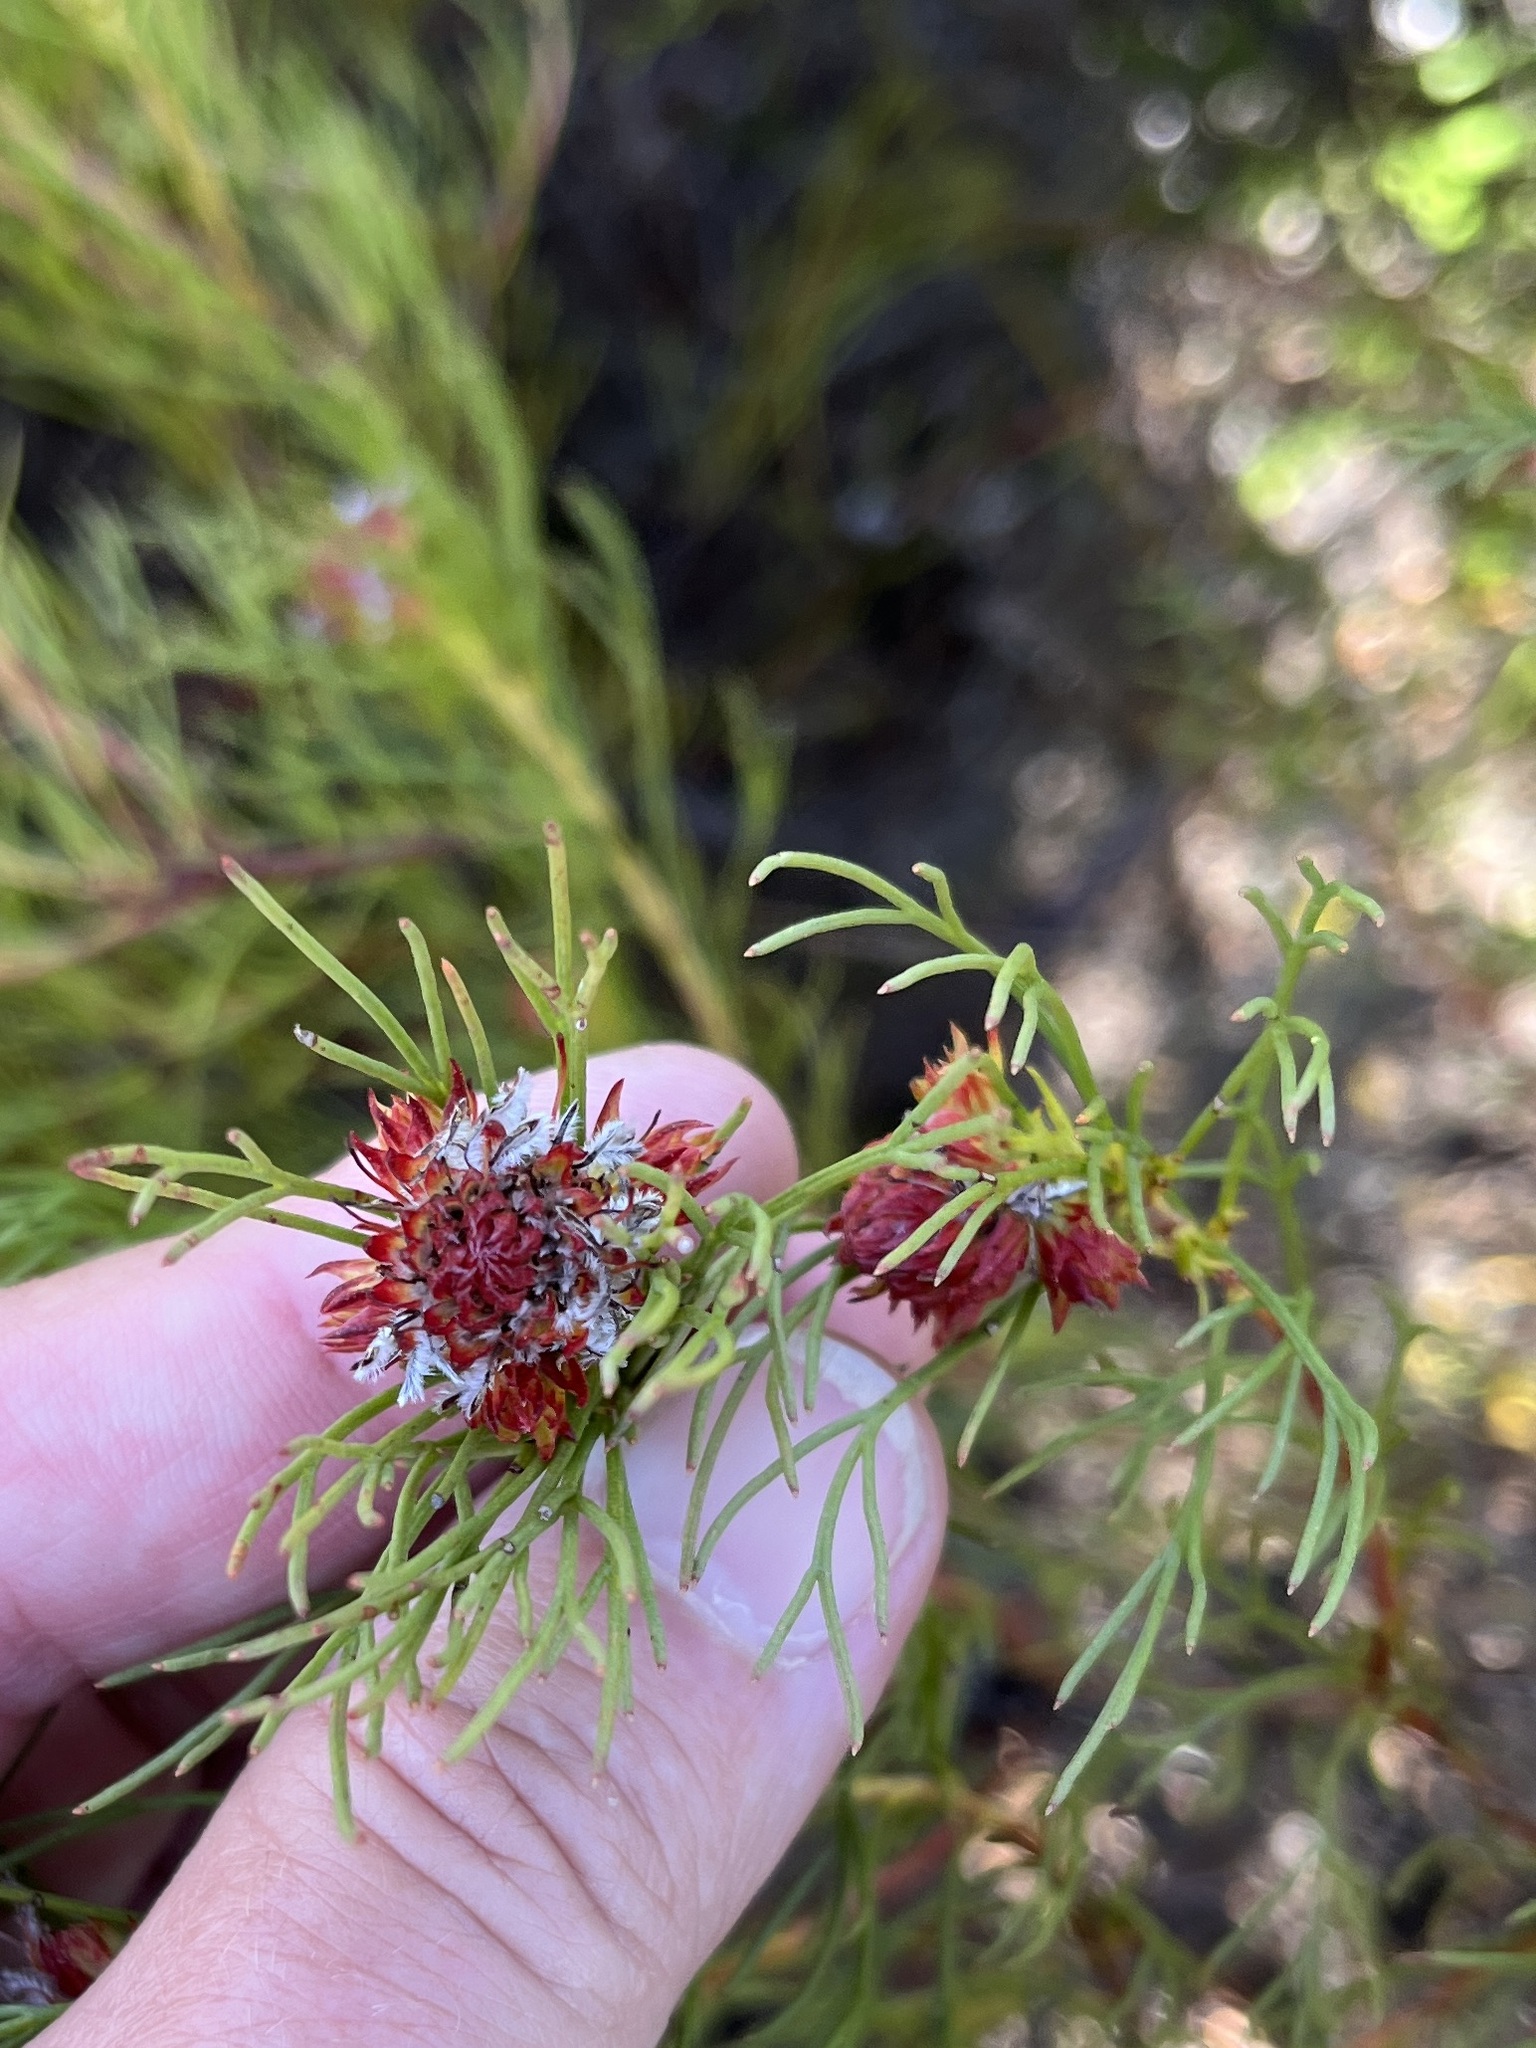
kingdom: Plantae
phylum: Tracheophyta
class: Magnoliopsida
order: Proteales
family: Proteaceae
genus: Serruria
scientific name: Serruria bolusii
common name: Agulhas spiderhead
